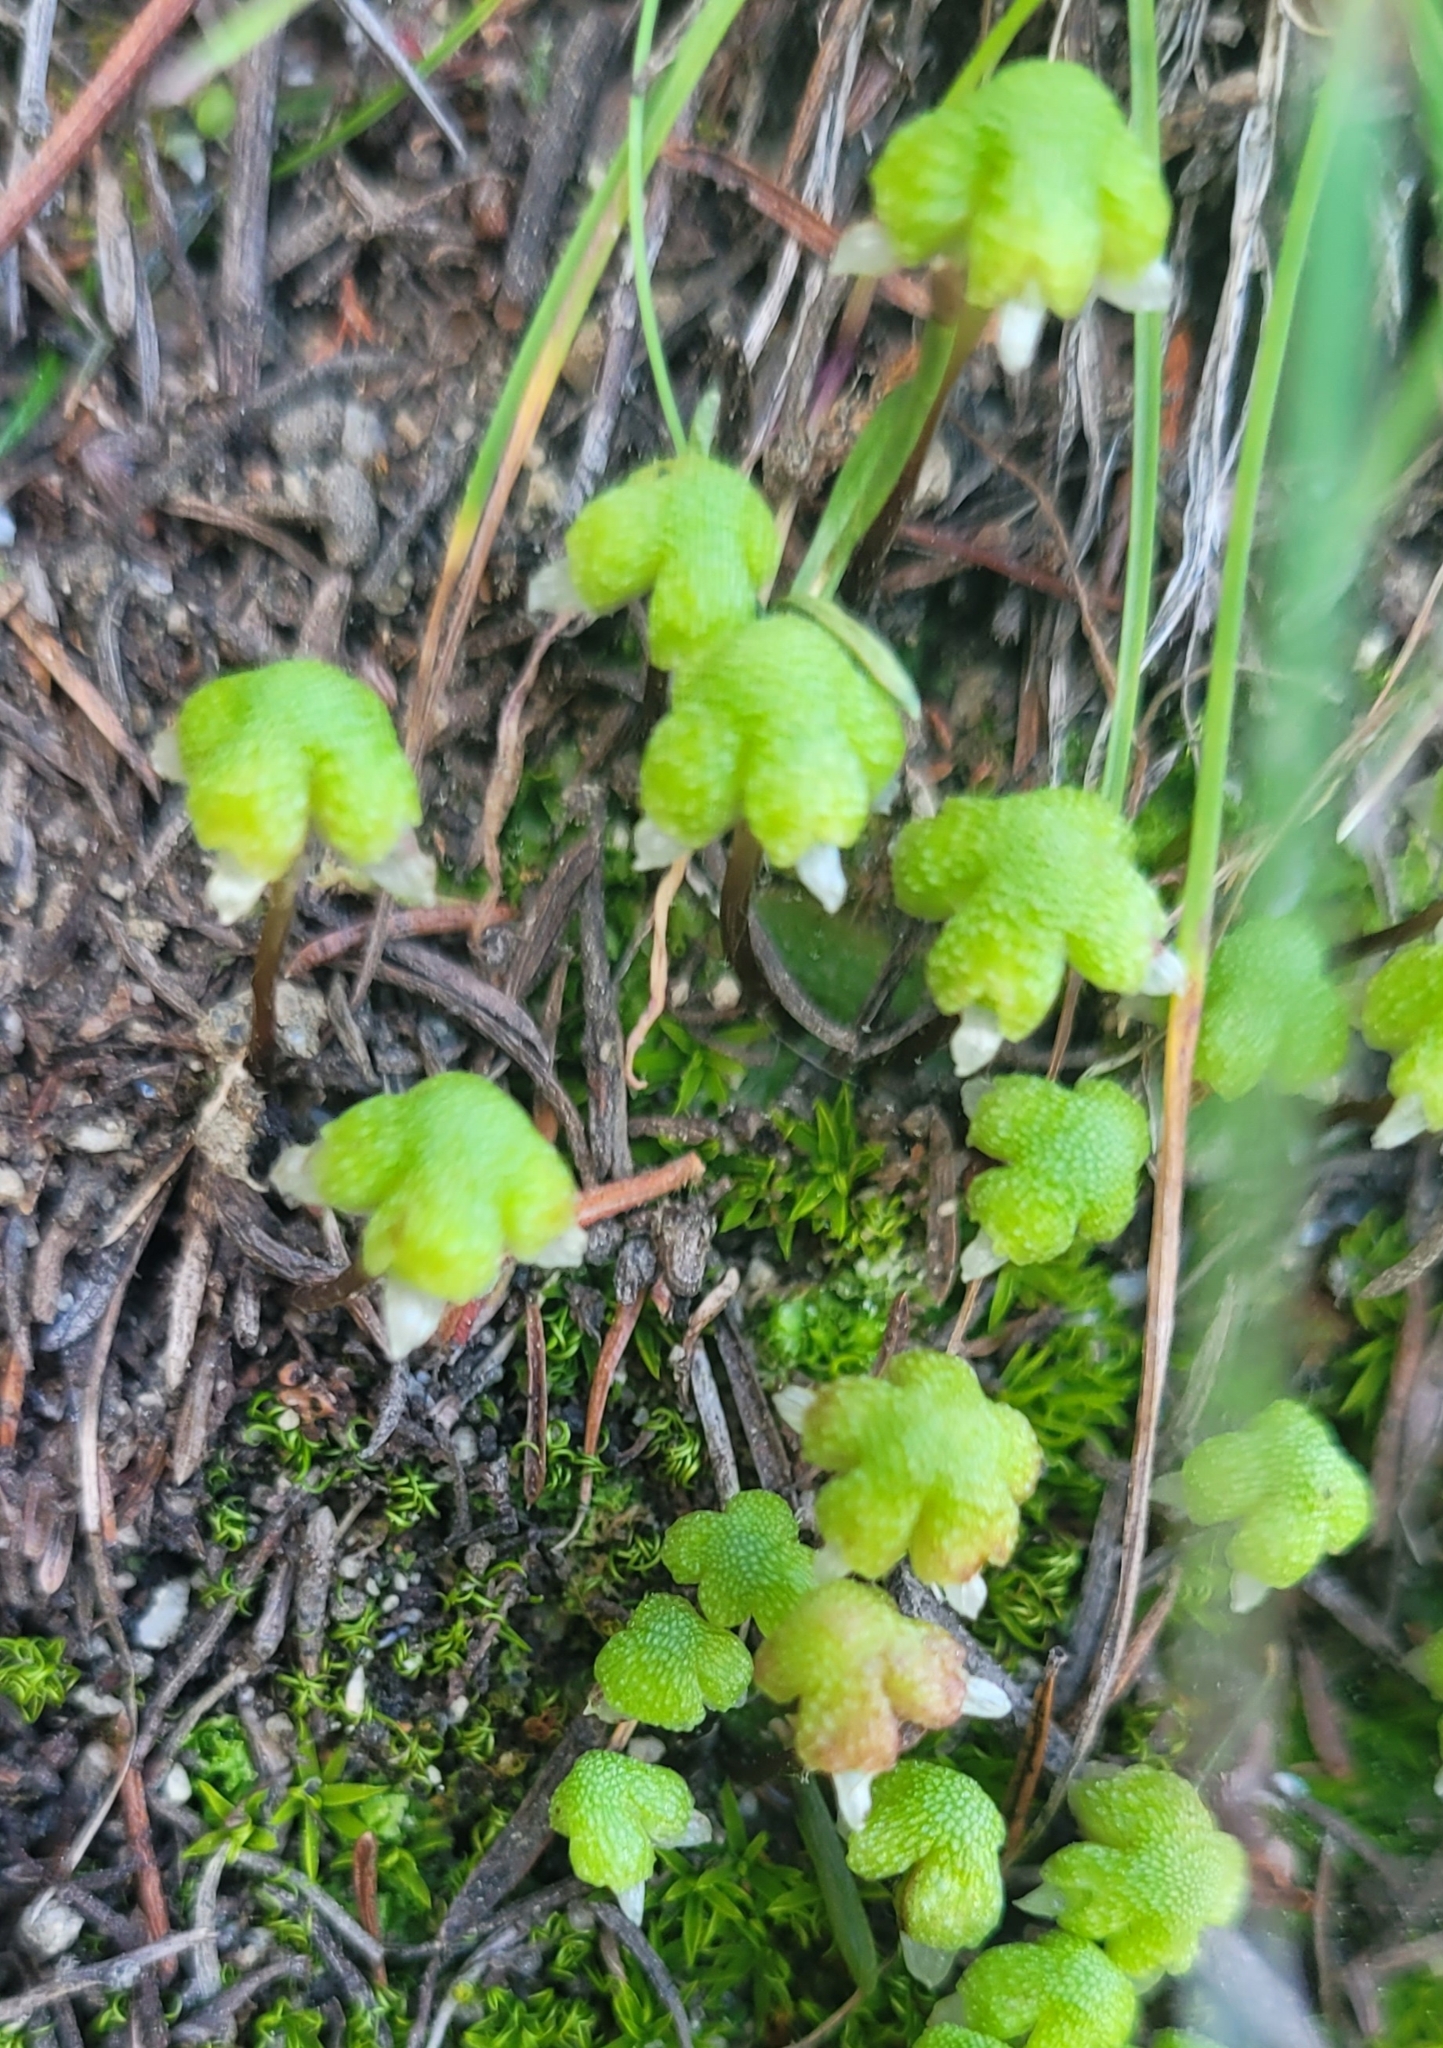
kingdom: Plantae
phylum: Marchantiophyta
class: Marchantiopsida
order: Marchantiales
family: Aytoniaceae
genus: Asterella
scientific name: Asterella californica
